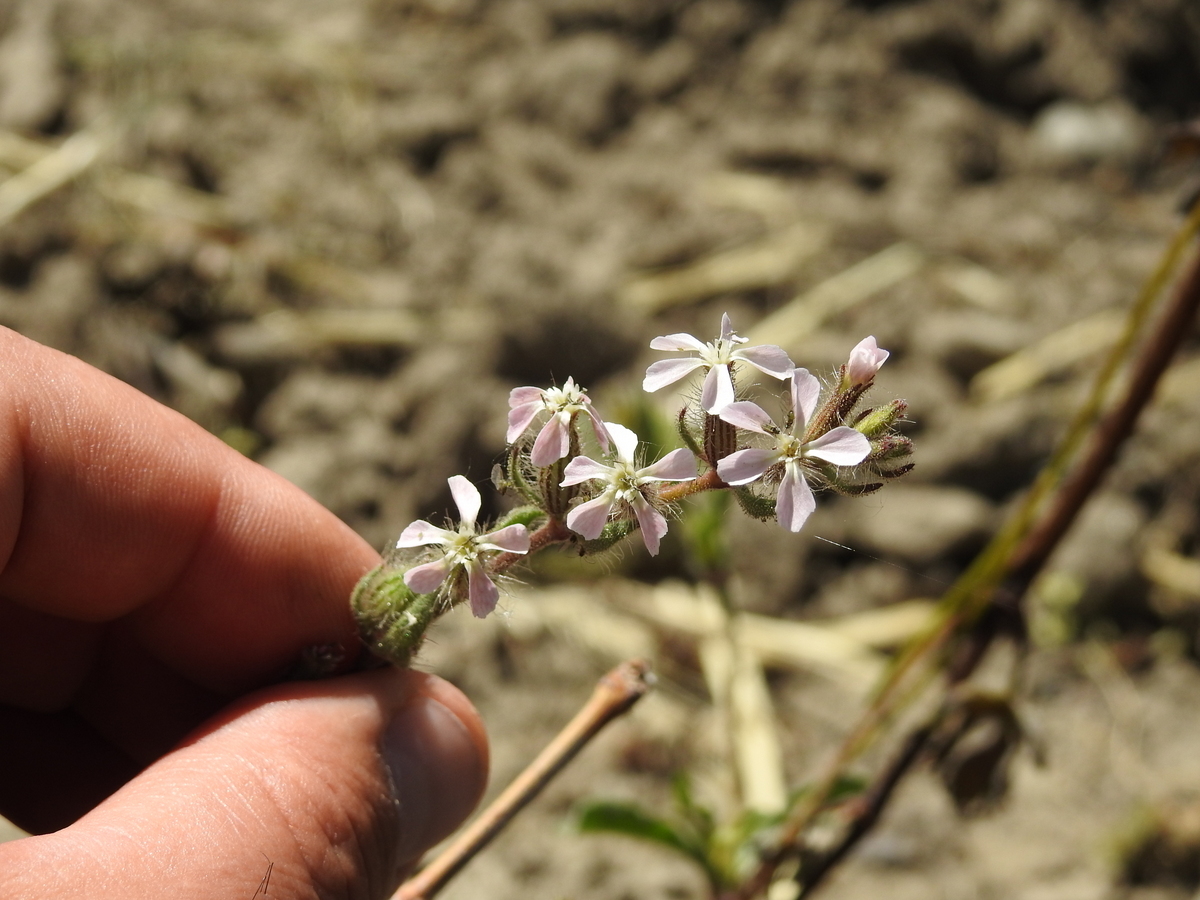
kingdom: Plantae
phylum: Tracheophyta
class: Magnoliopsida
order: Caryophyllales
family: Caryophyllaceae
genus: Silene
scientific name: Silene gallica
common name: Small-flowered catchfly
